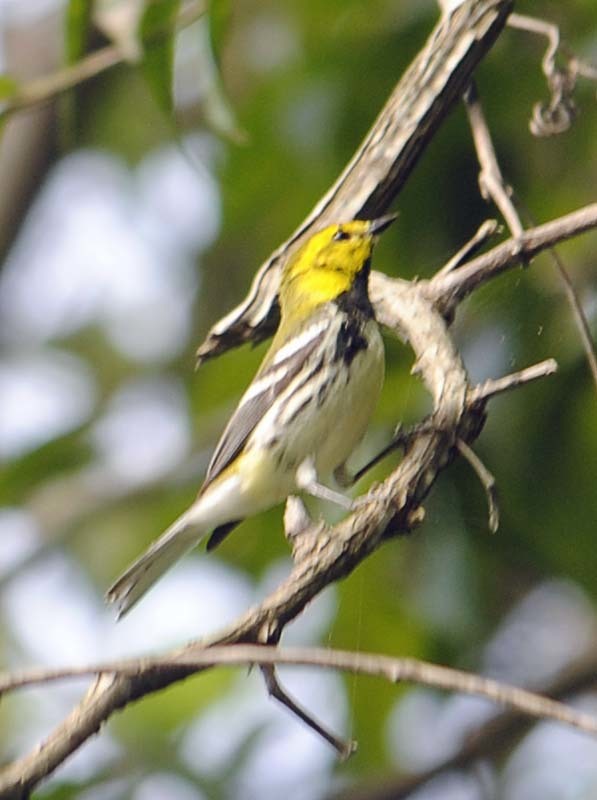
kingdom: Animalia
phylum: Chordata
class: Aves
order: Passeriformes
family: Parulidae
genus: Setophaga
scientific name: Setophaga virens
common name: Black-throated green warbler
